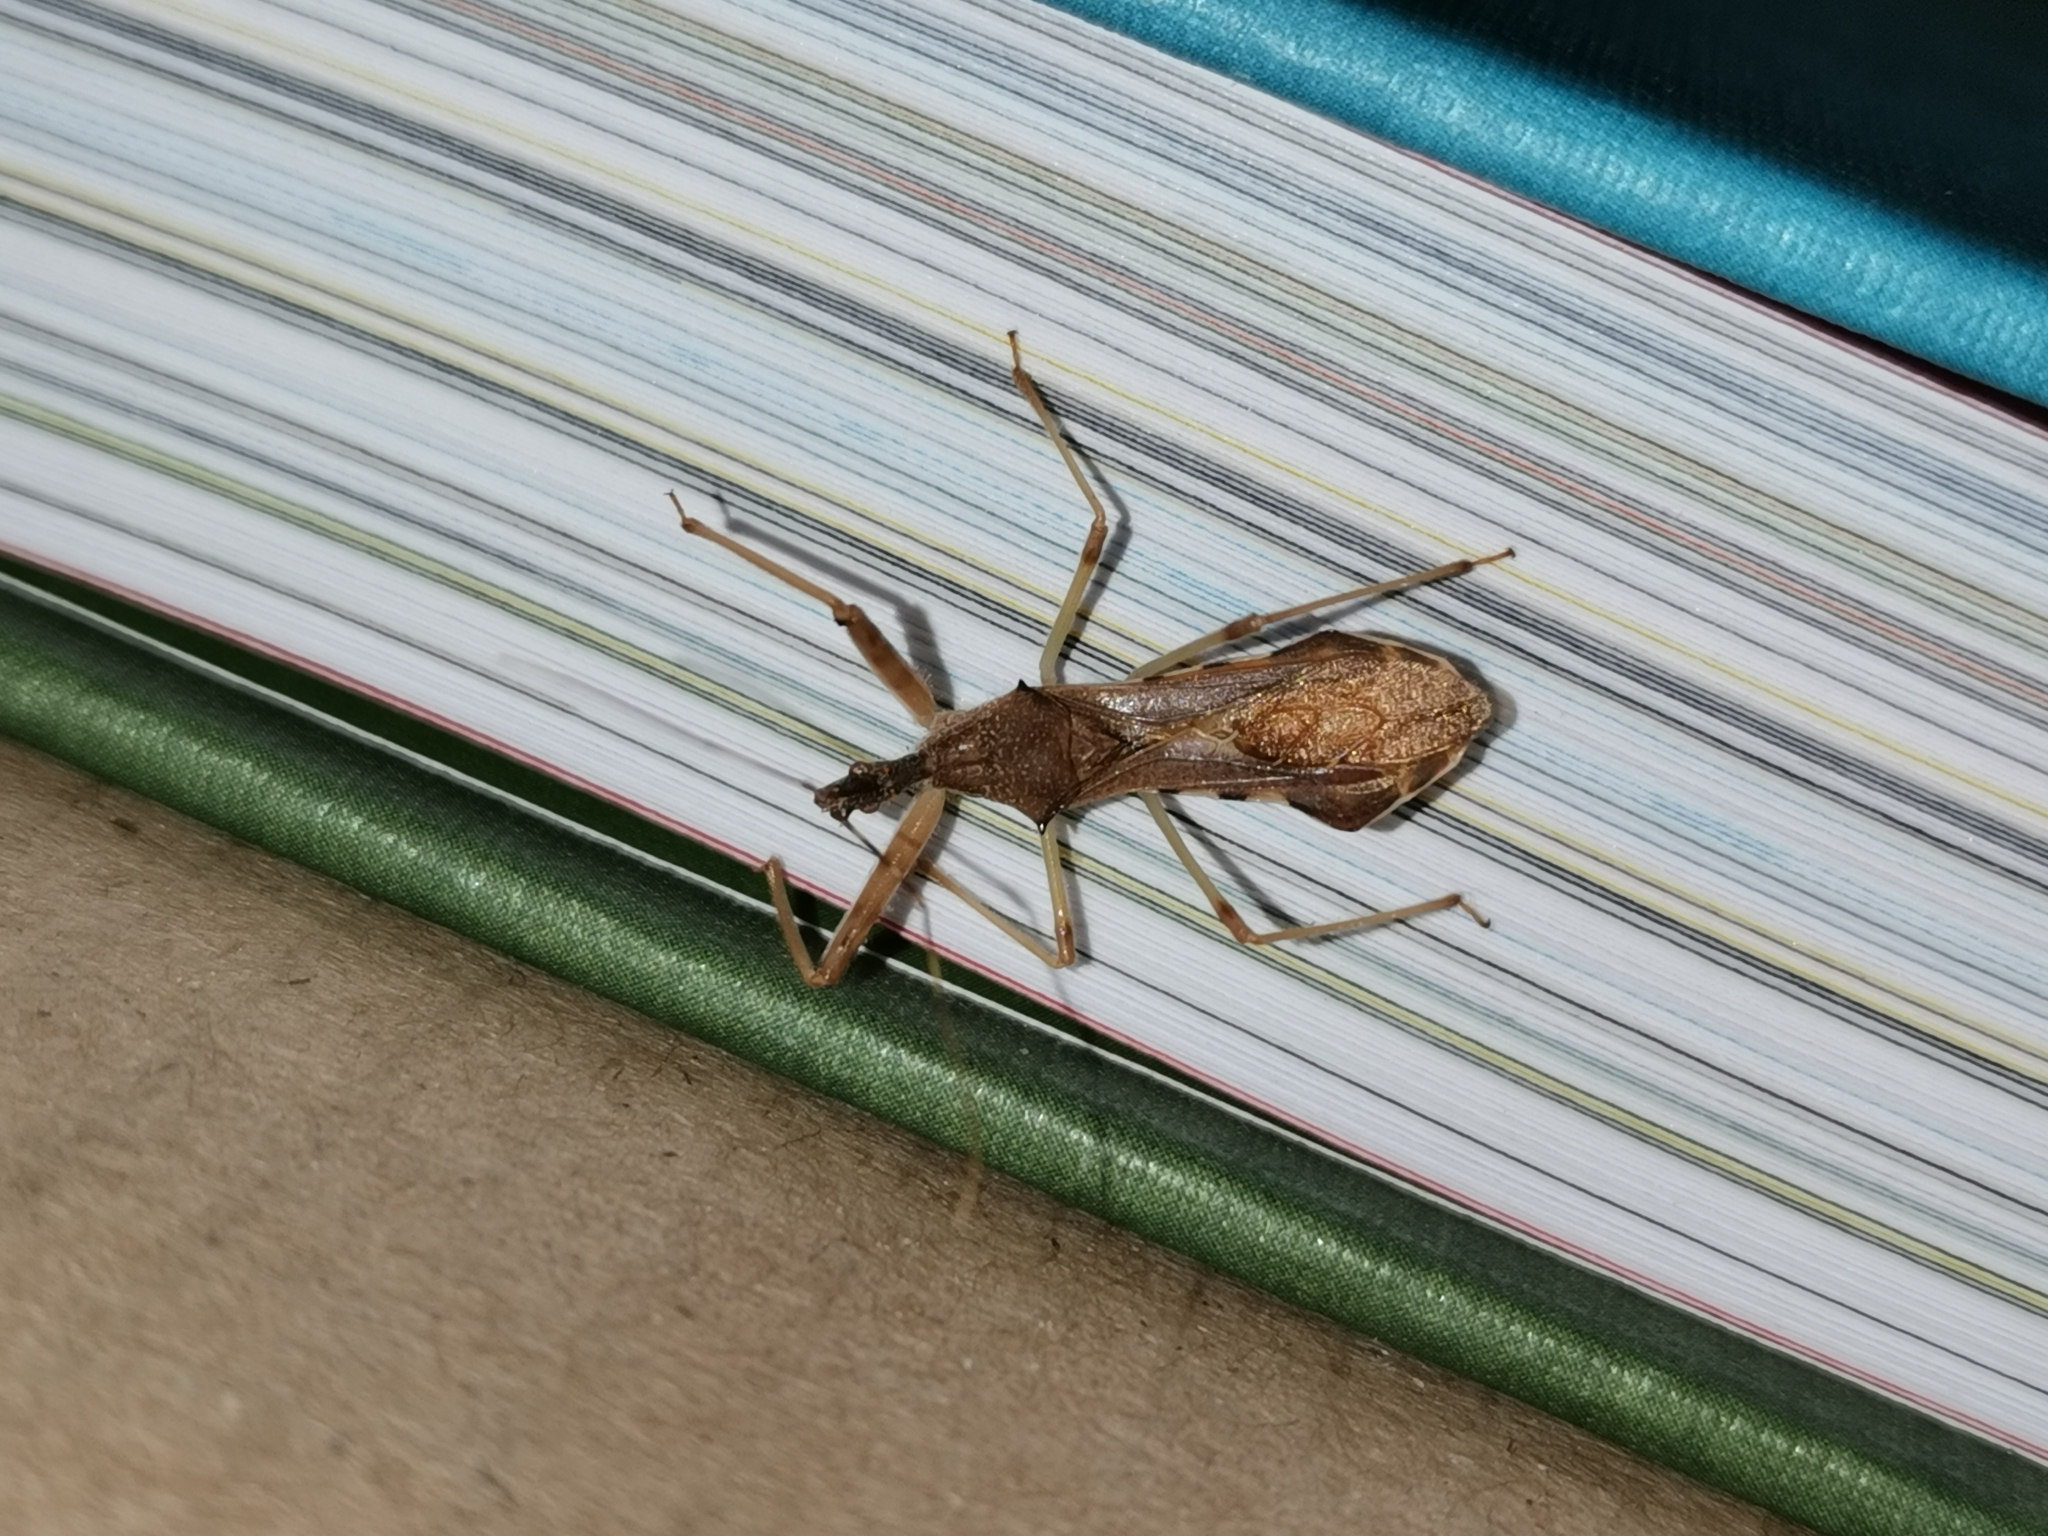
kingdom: Animalia
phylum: Arthropoda
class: Insecta
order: Hemiptera
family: Reduviidae
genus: Nagusta
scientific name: Nagusta goedelii
